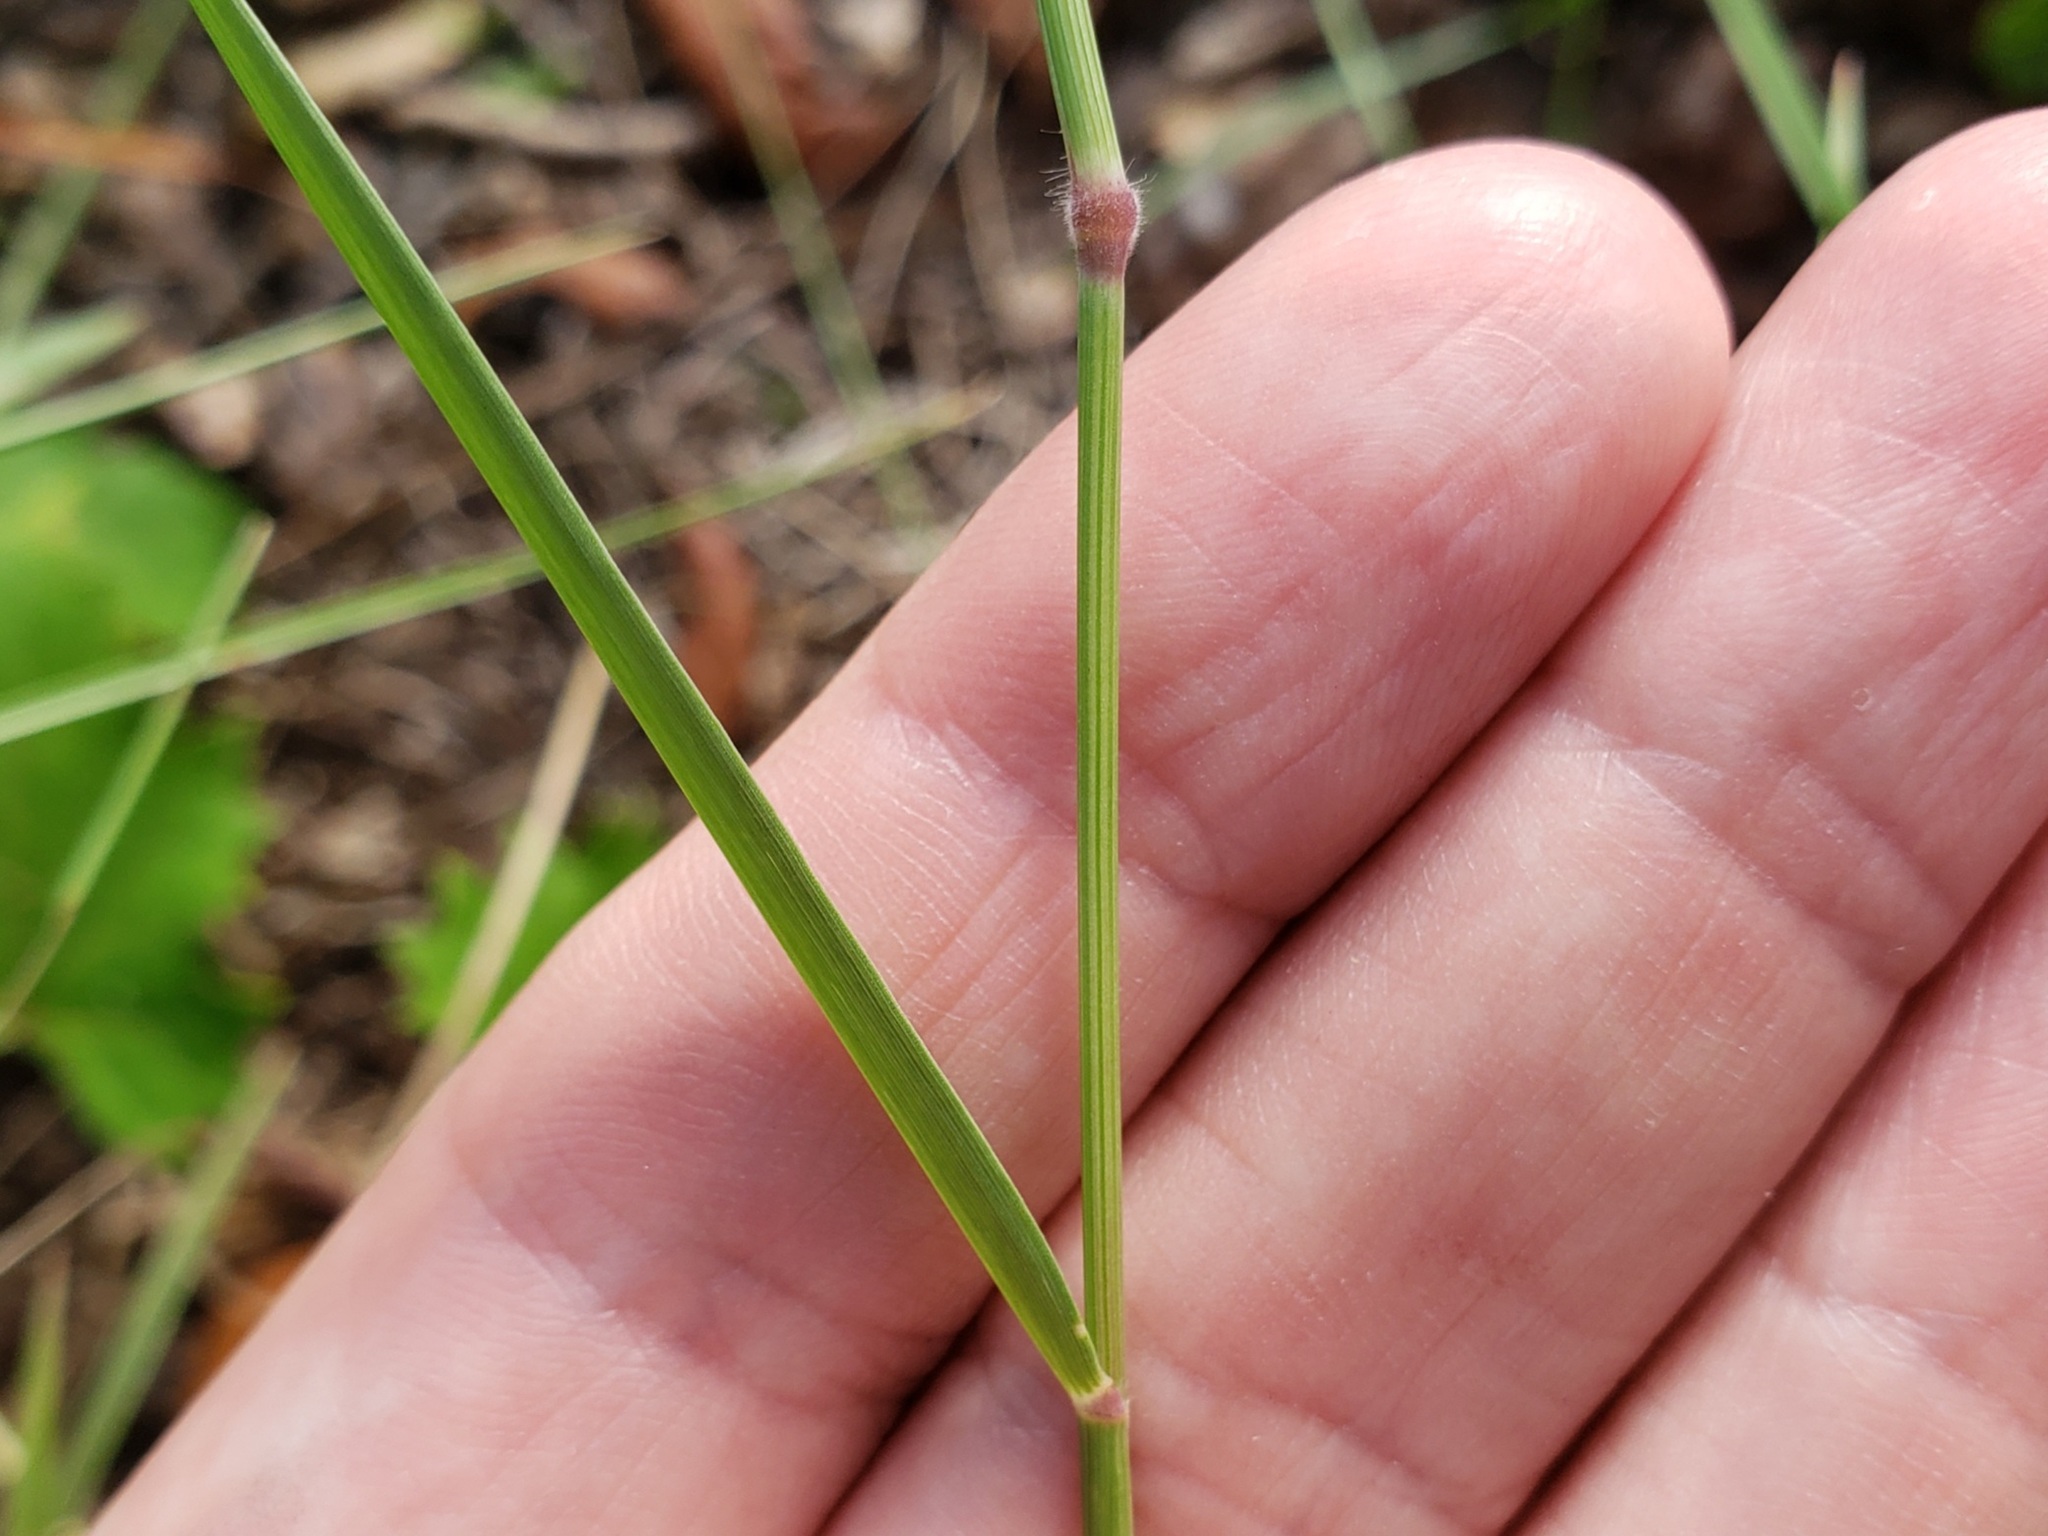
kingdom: Plantae
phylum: Tracheophyta
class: Liliopsida
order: Poales
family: Poaceae
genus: Melinis
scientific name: Melinis repens
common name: Rose natal grass
